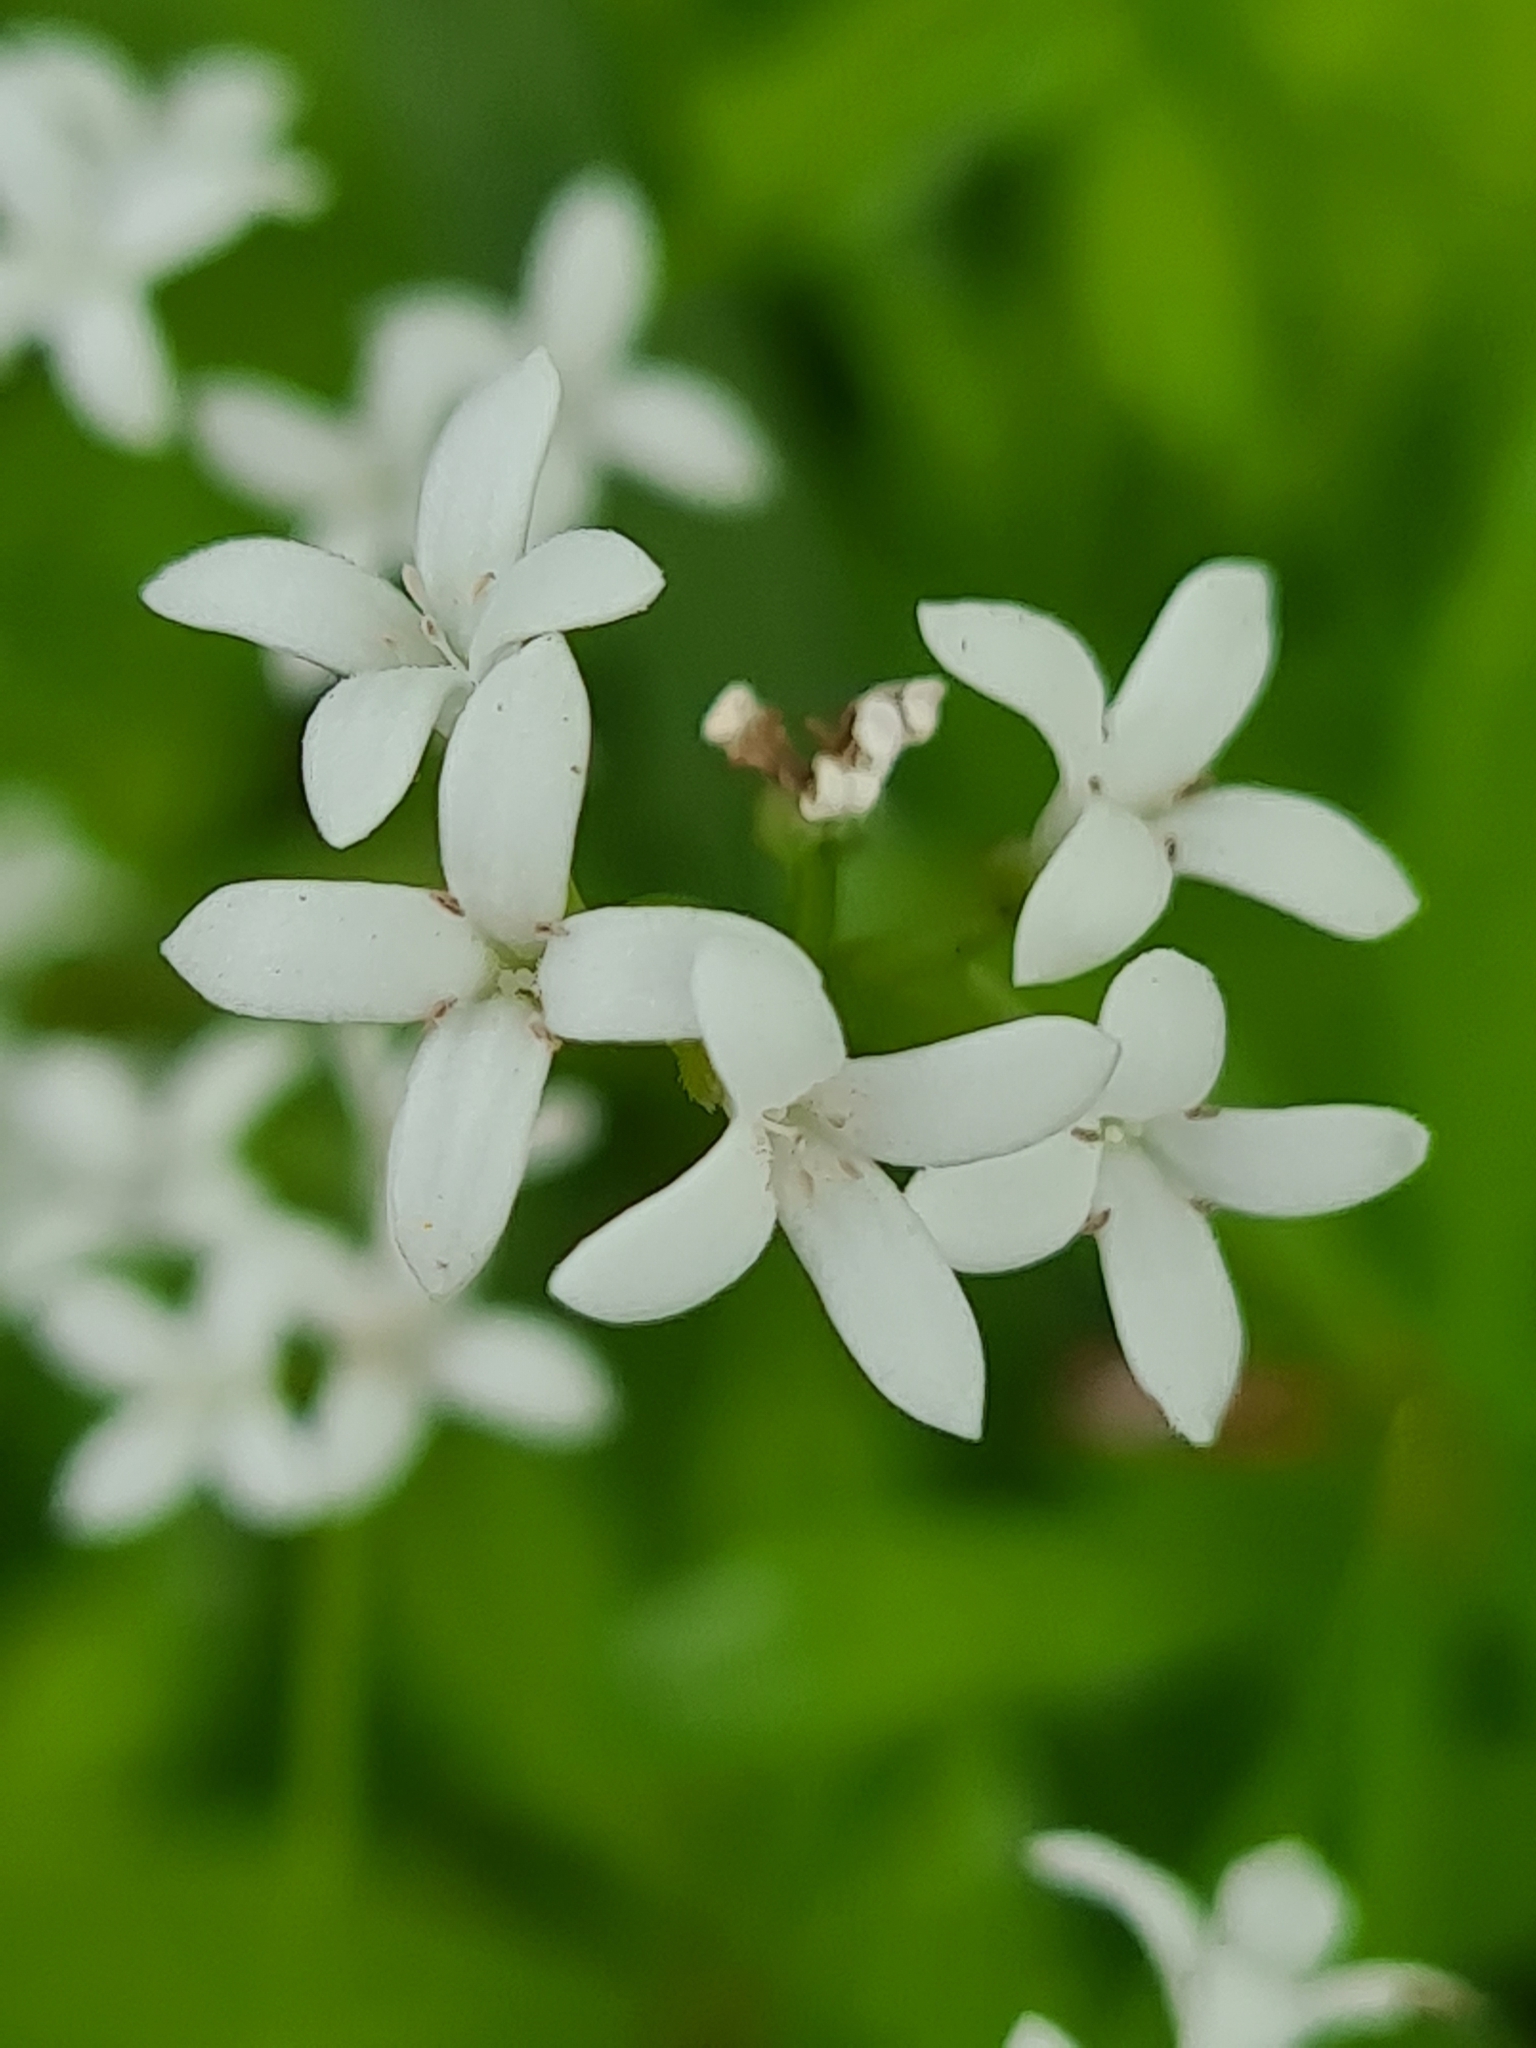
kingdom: Plantae
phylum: Tracheophyta
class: Magnoliopsida
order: Gentianales
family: Rubiaceae
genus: Galium
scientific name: Galium odoratum
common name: Sweet woodruff
